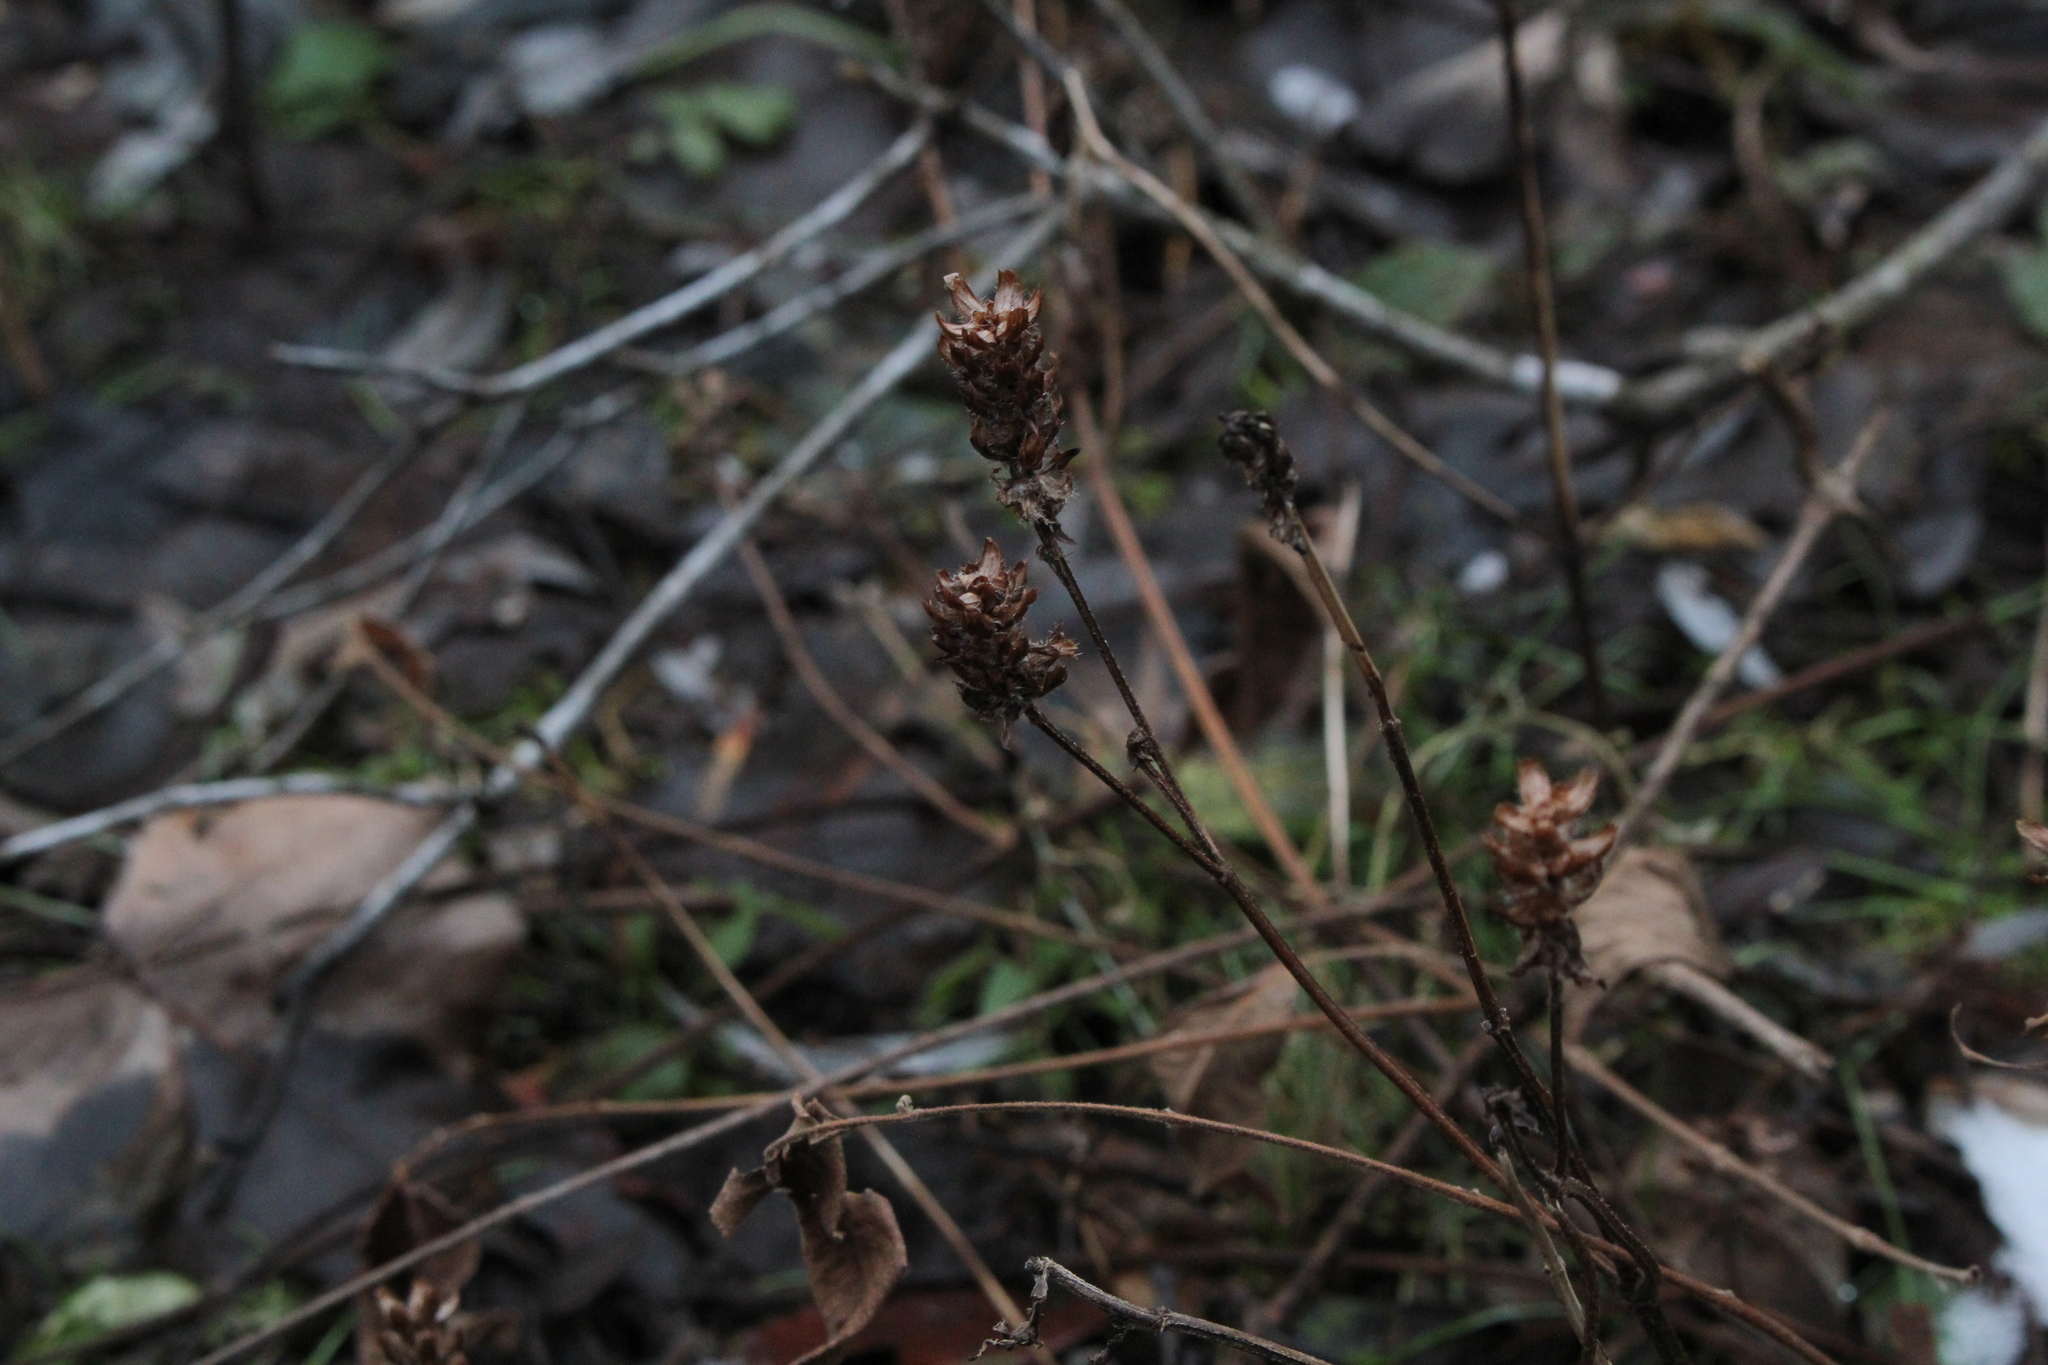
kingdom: Plantae
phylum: Tracheophyta
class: Magnoliopsida
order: Lamiales
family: Lamiaceae
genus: Prunella
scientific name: Prunella vulgaris
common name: Heal-all
